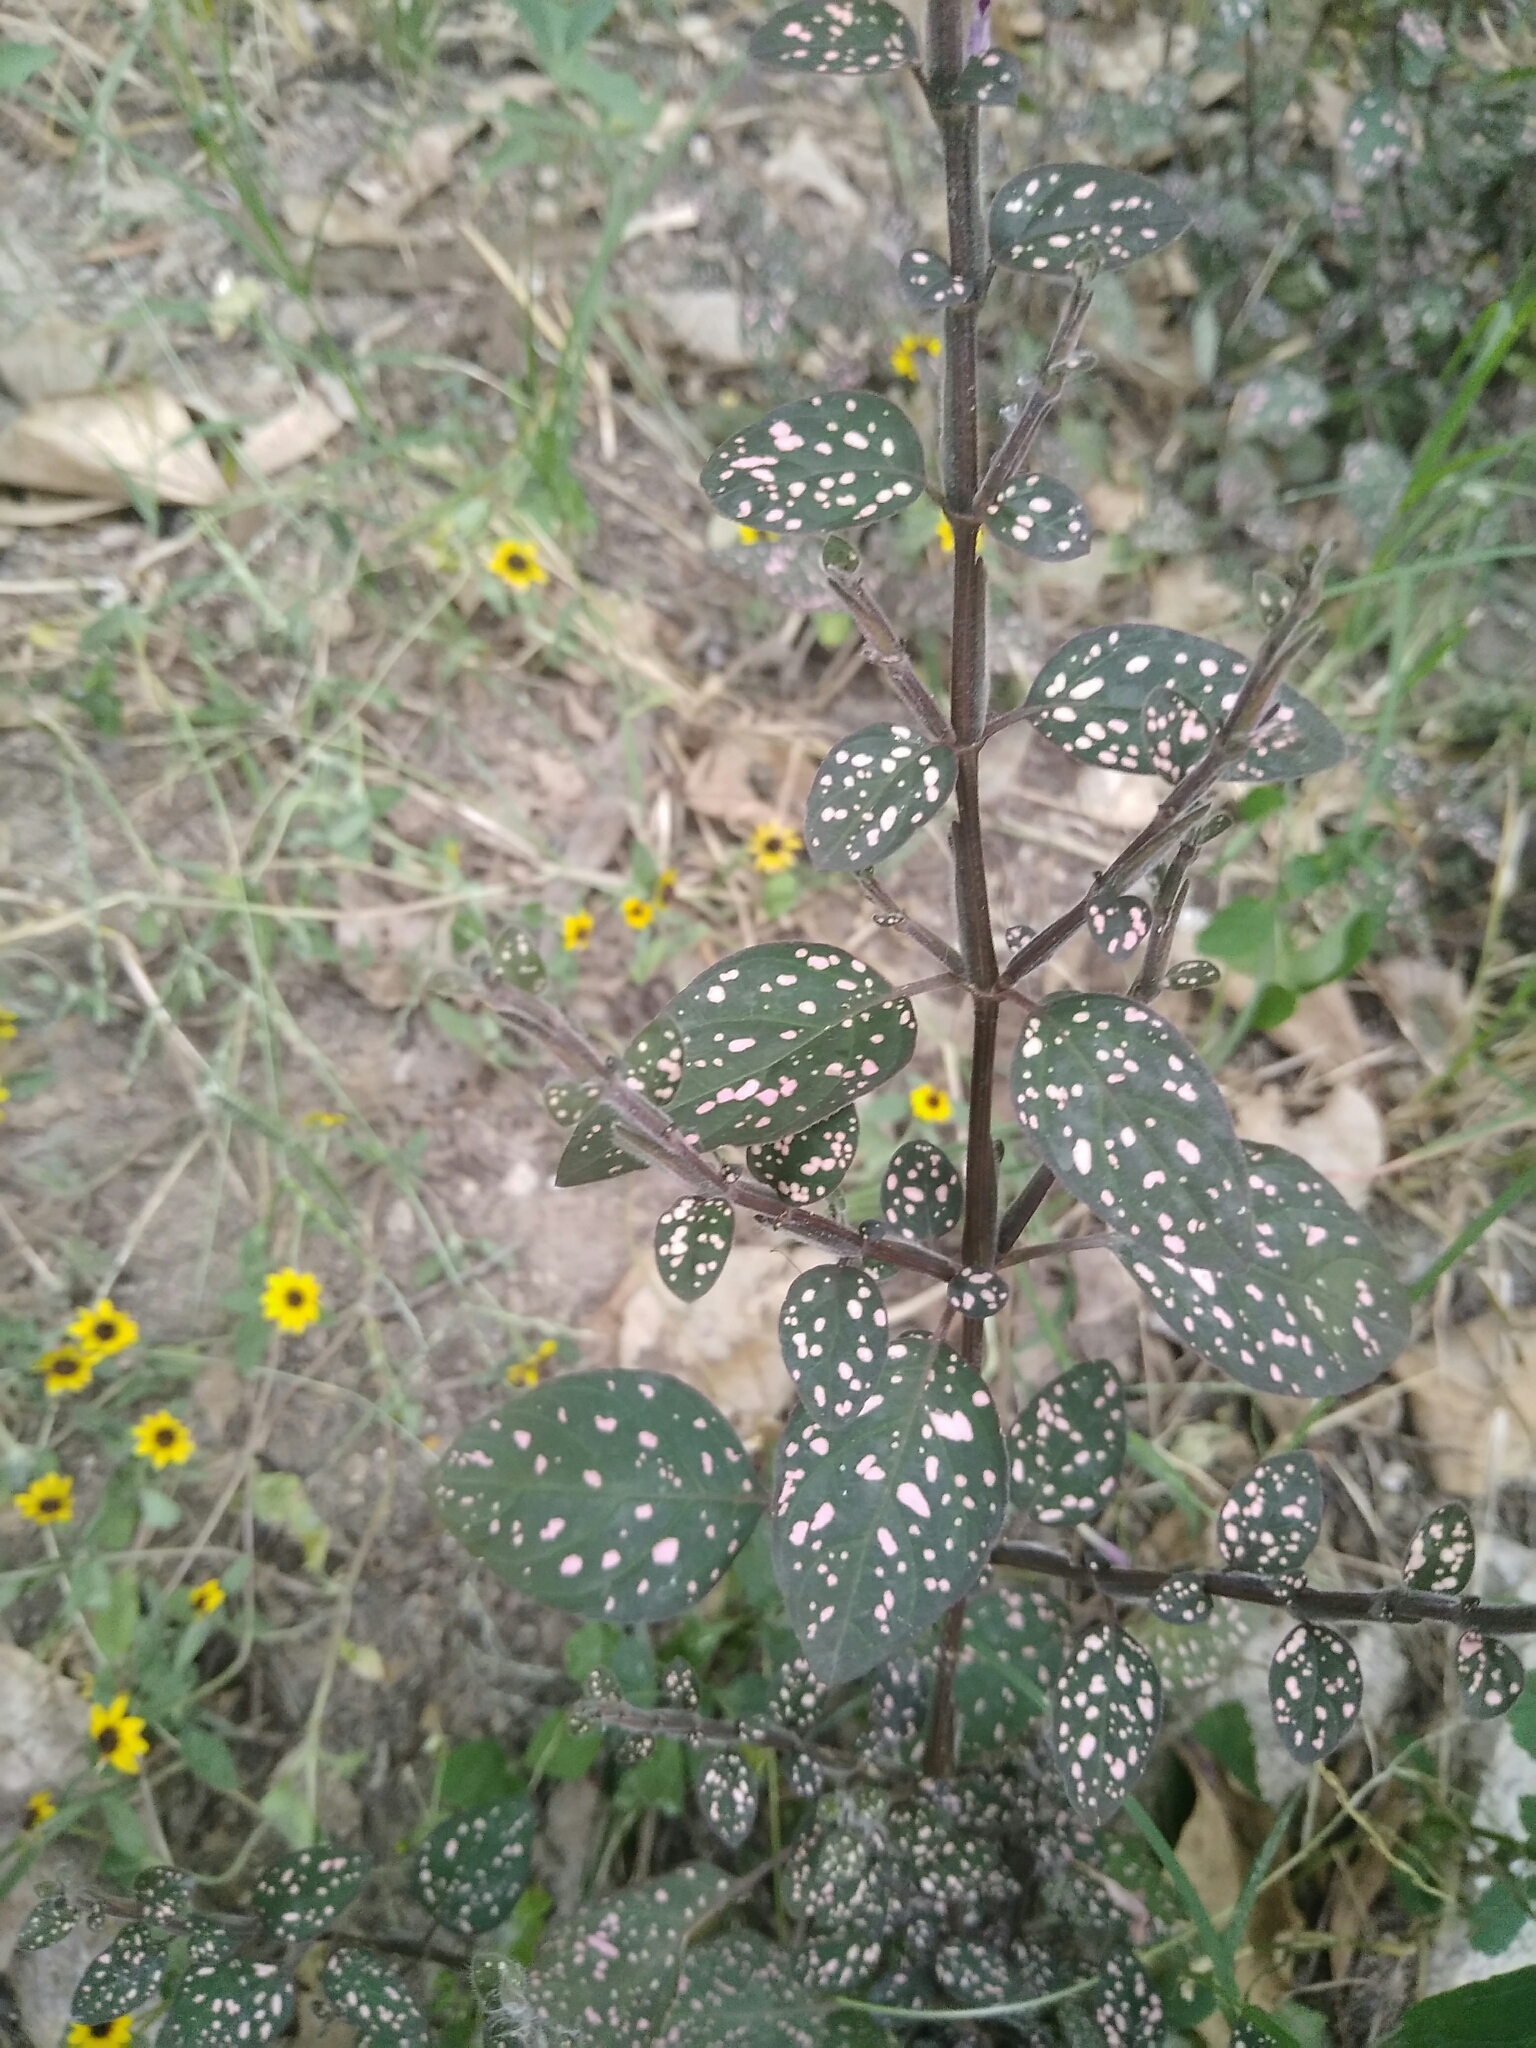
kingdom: Plantae
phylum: Tracheophyta
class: Magnoliopsida
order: Lamiales
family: Acanthaceae
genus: Hypoestes
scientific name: Hypoestes phyllostachya
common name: Polkadot-plant
